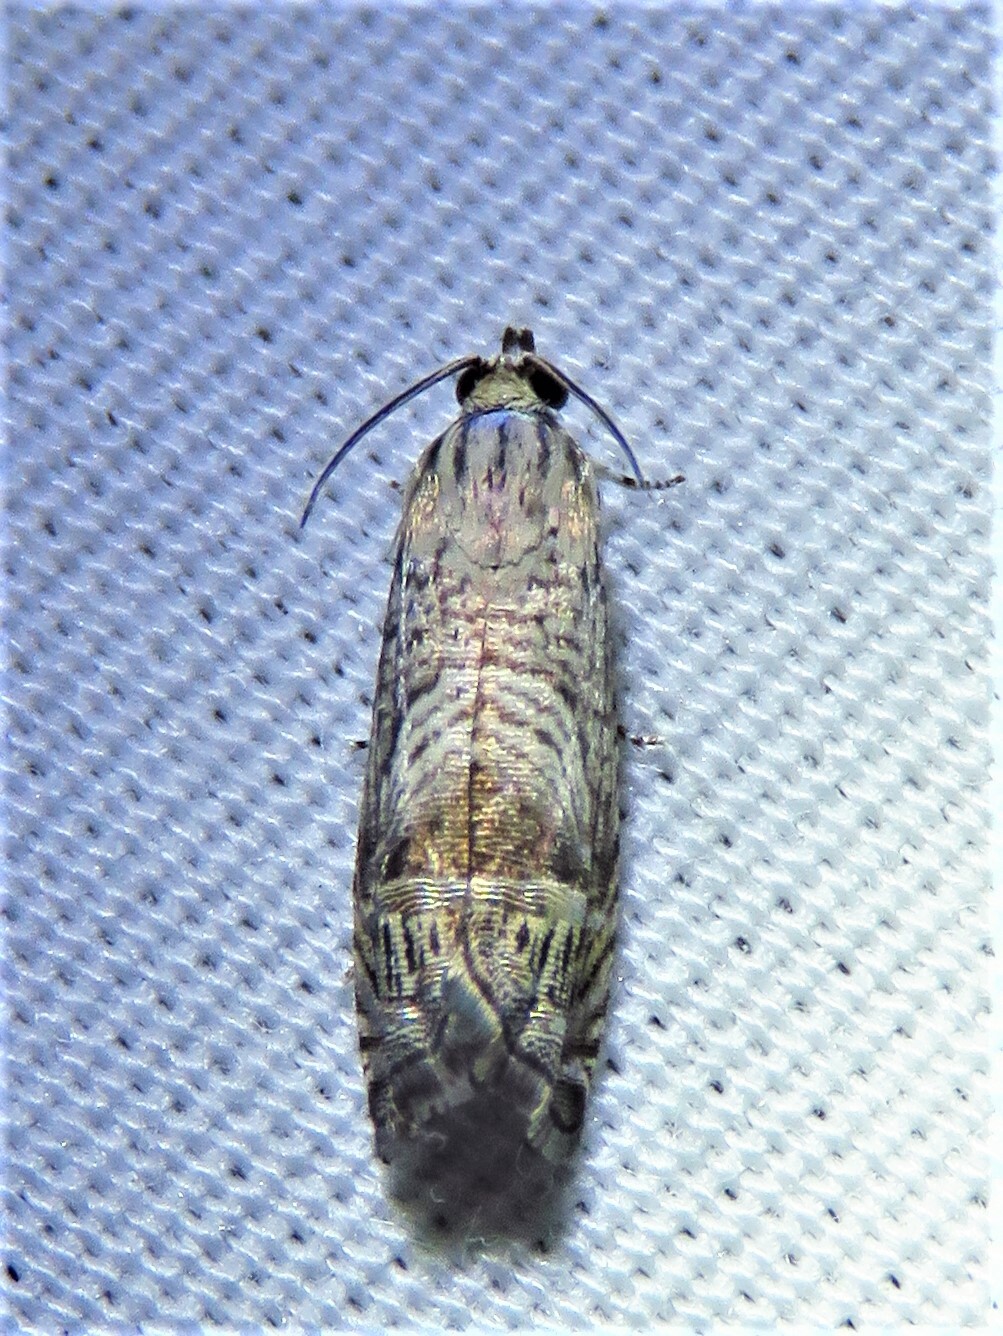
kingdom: Animalia
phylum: Arthropoda
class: Insecta
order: Lepidoptera
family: Tortricidae
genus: Ofatulena
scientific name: Ofatulena duodecemstriata
